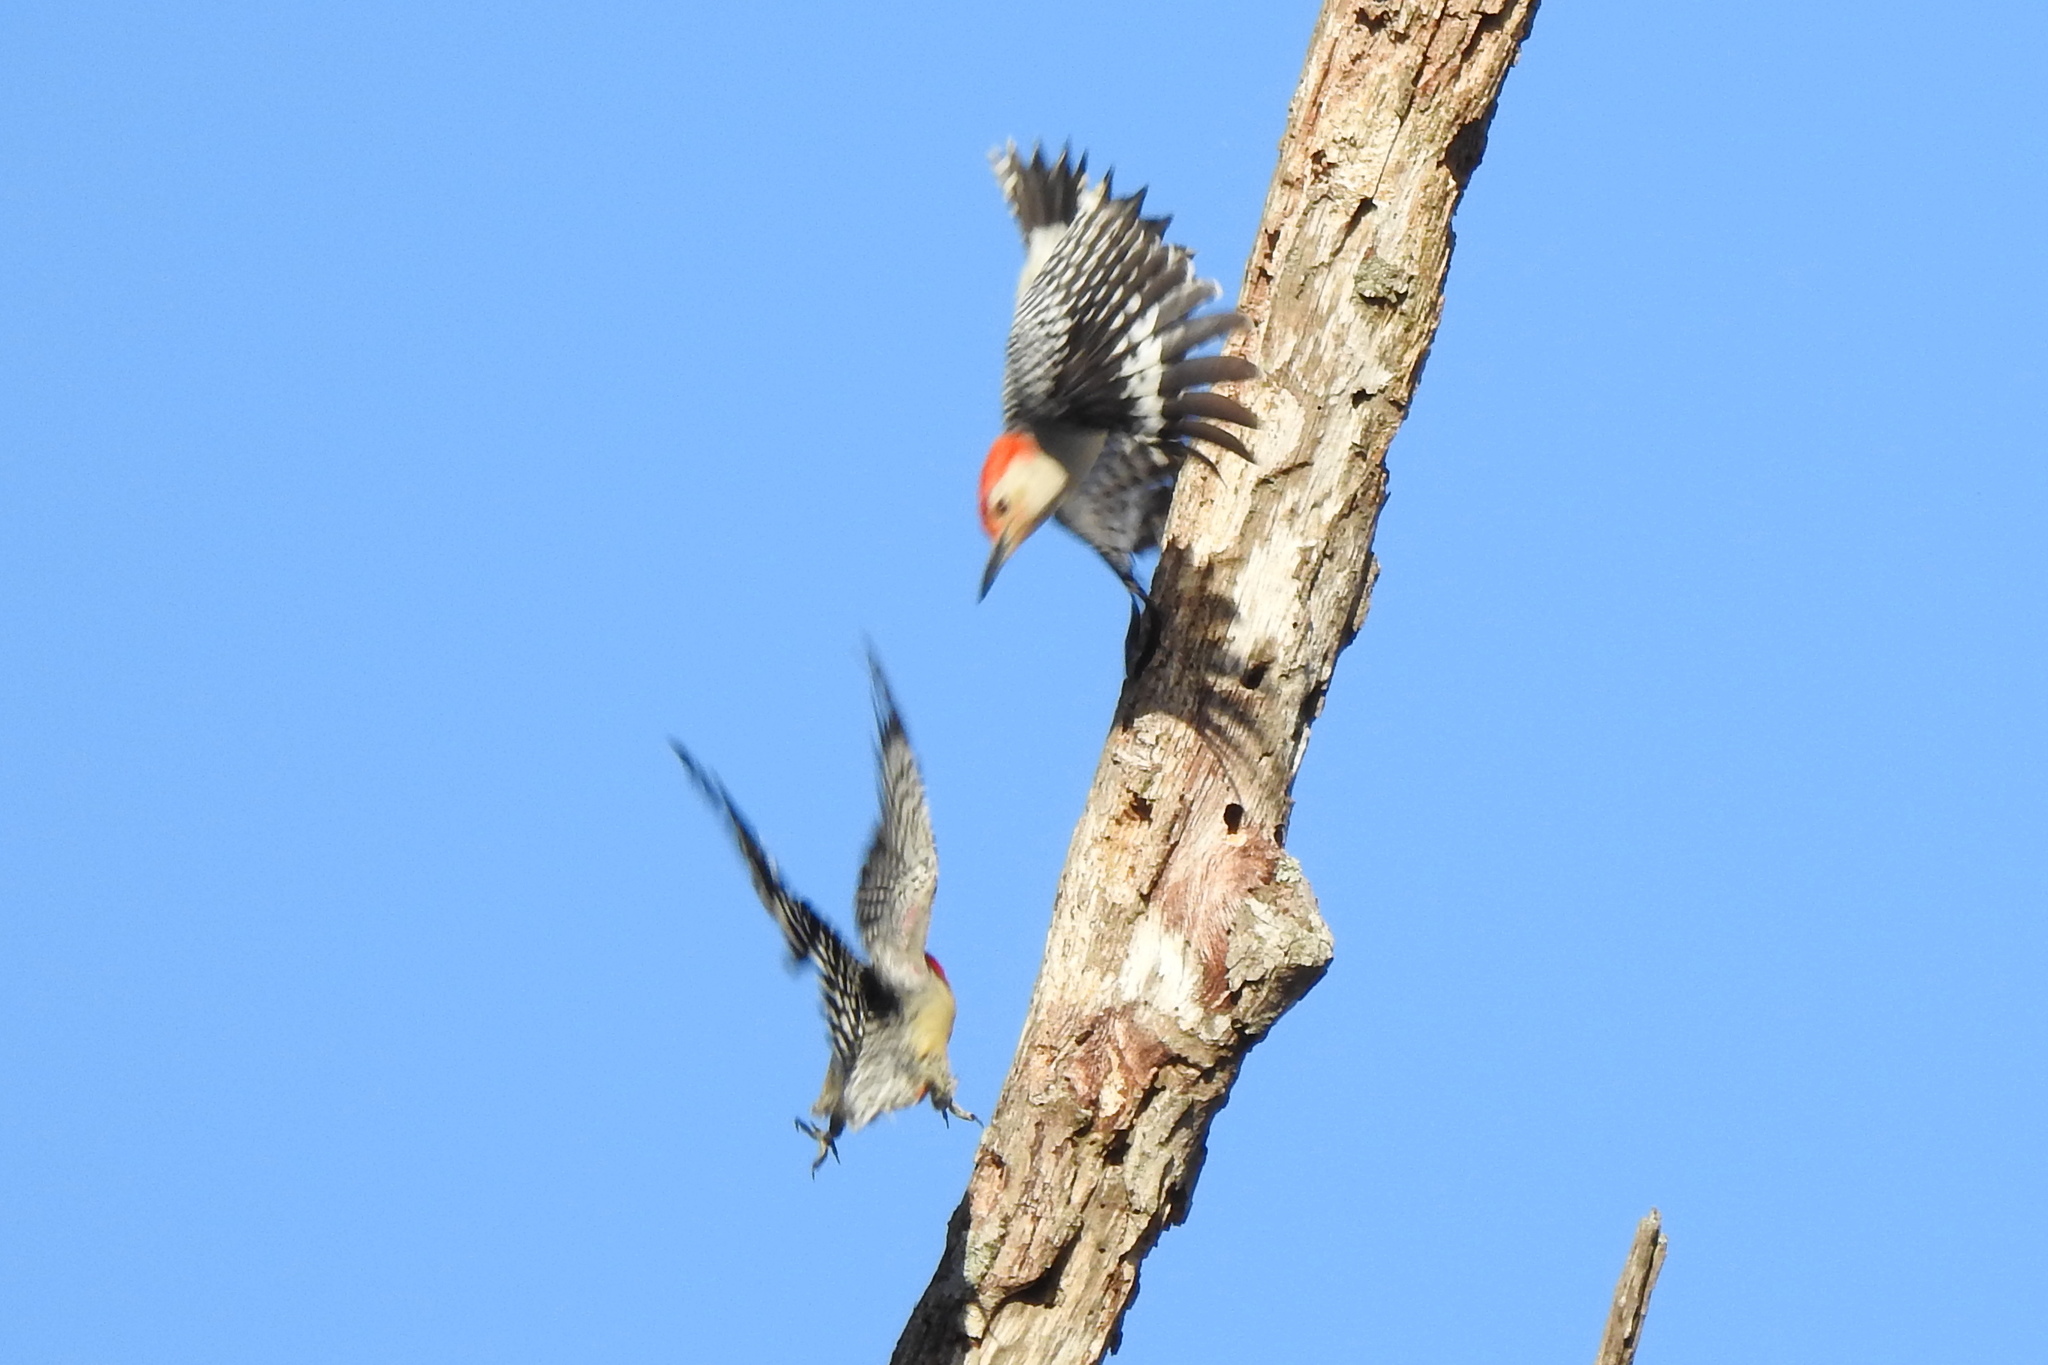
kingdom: Animalia
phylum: Chordata
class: Aves
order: Piciformes
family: Picidae
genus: Melanerpes
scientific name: Melanerpes carolinus
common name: Red-bellied woodpecker
